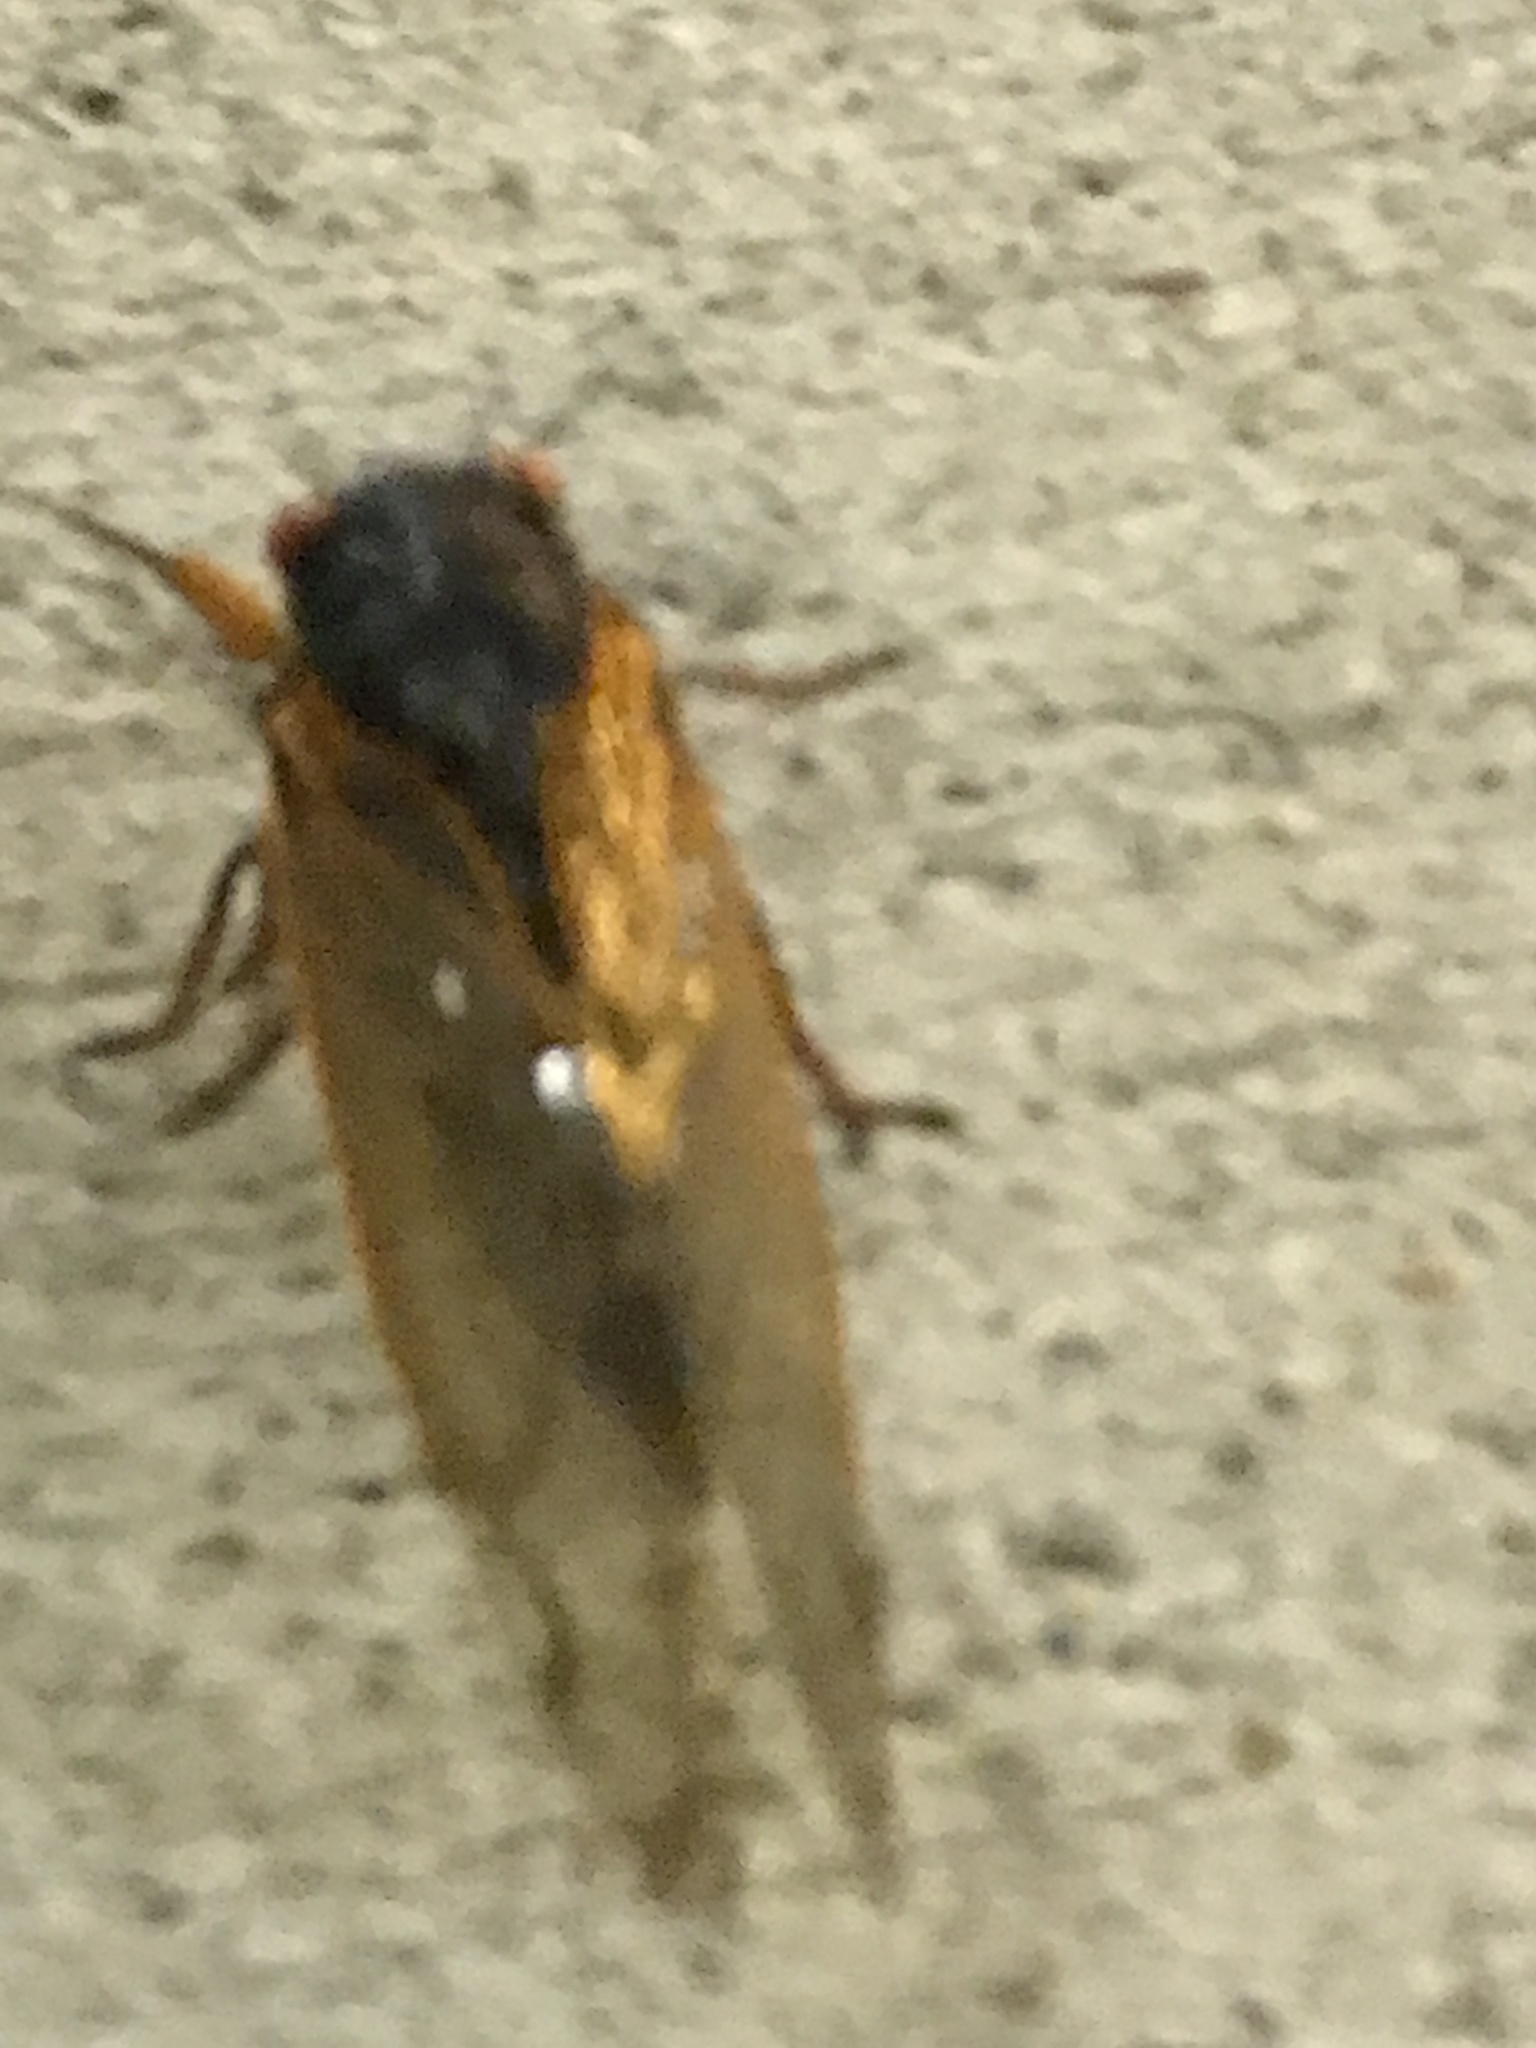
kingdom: Animalia
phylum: Arthropoda
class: Insecta
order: Hemiptera
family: Cicadidae
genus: Magicicada
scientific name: Magicicada septendecim
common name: Periodical cicada
